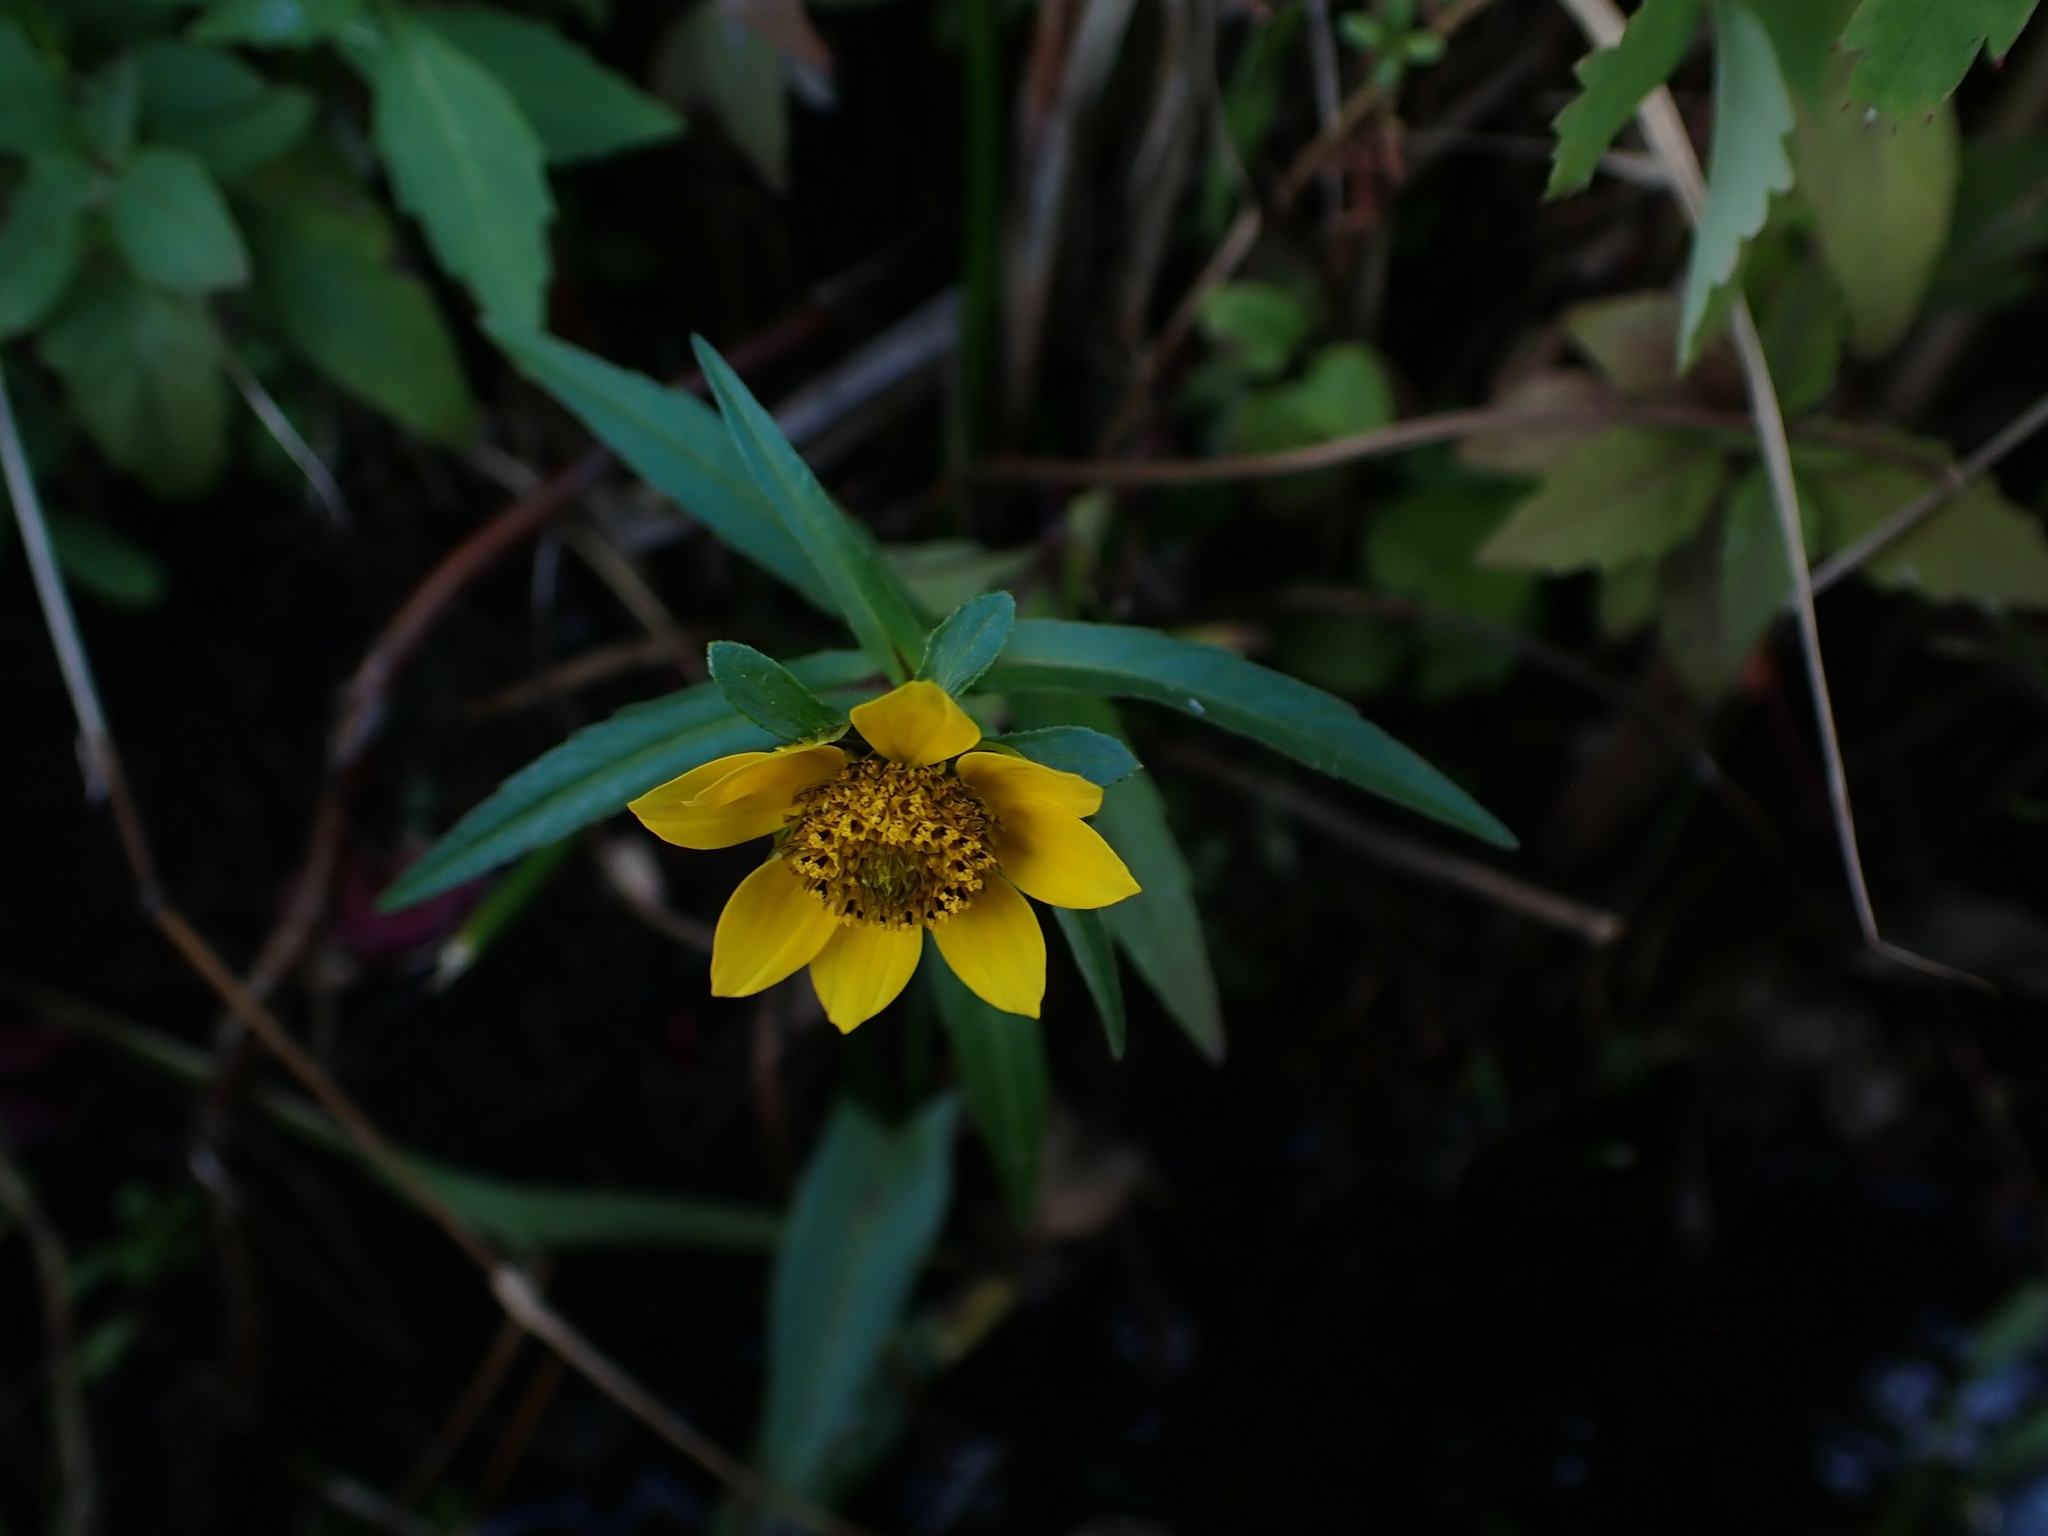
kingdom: Plantae
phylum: Tracheophyta
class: Magnoliopsida
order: Asterales
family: Asteraceae
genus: Bidens
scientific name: Bidens cernua
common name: Nodding bur-marigold
